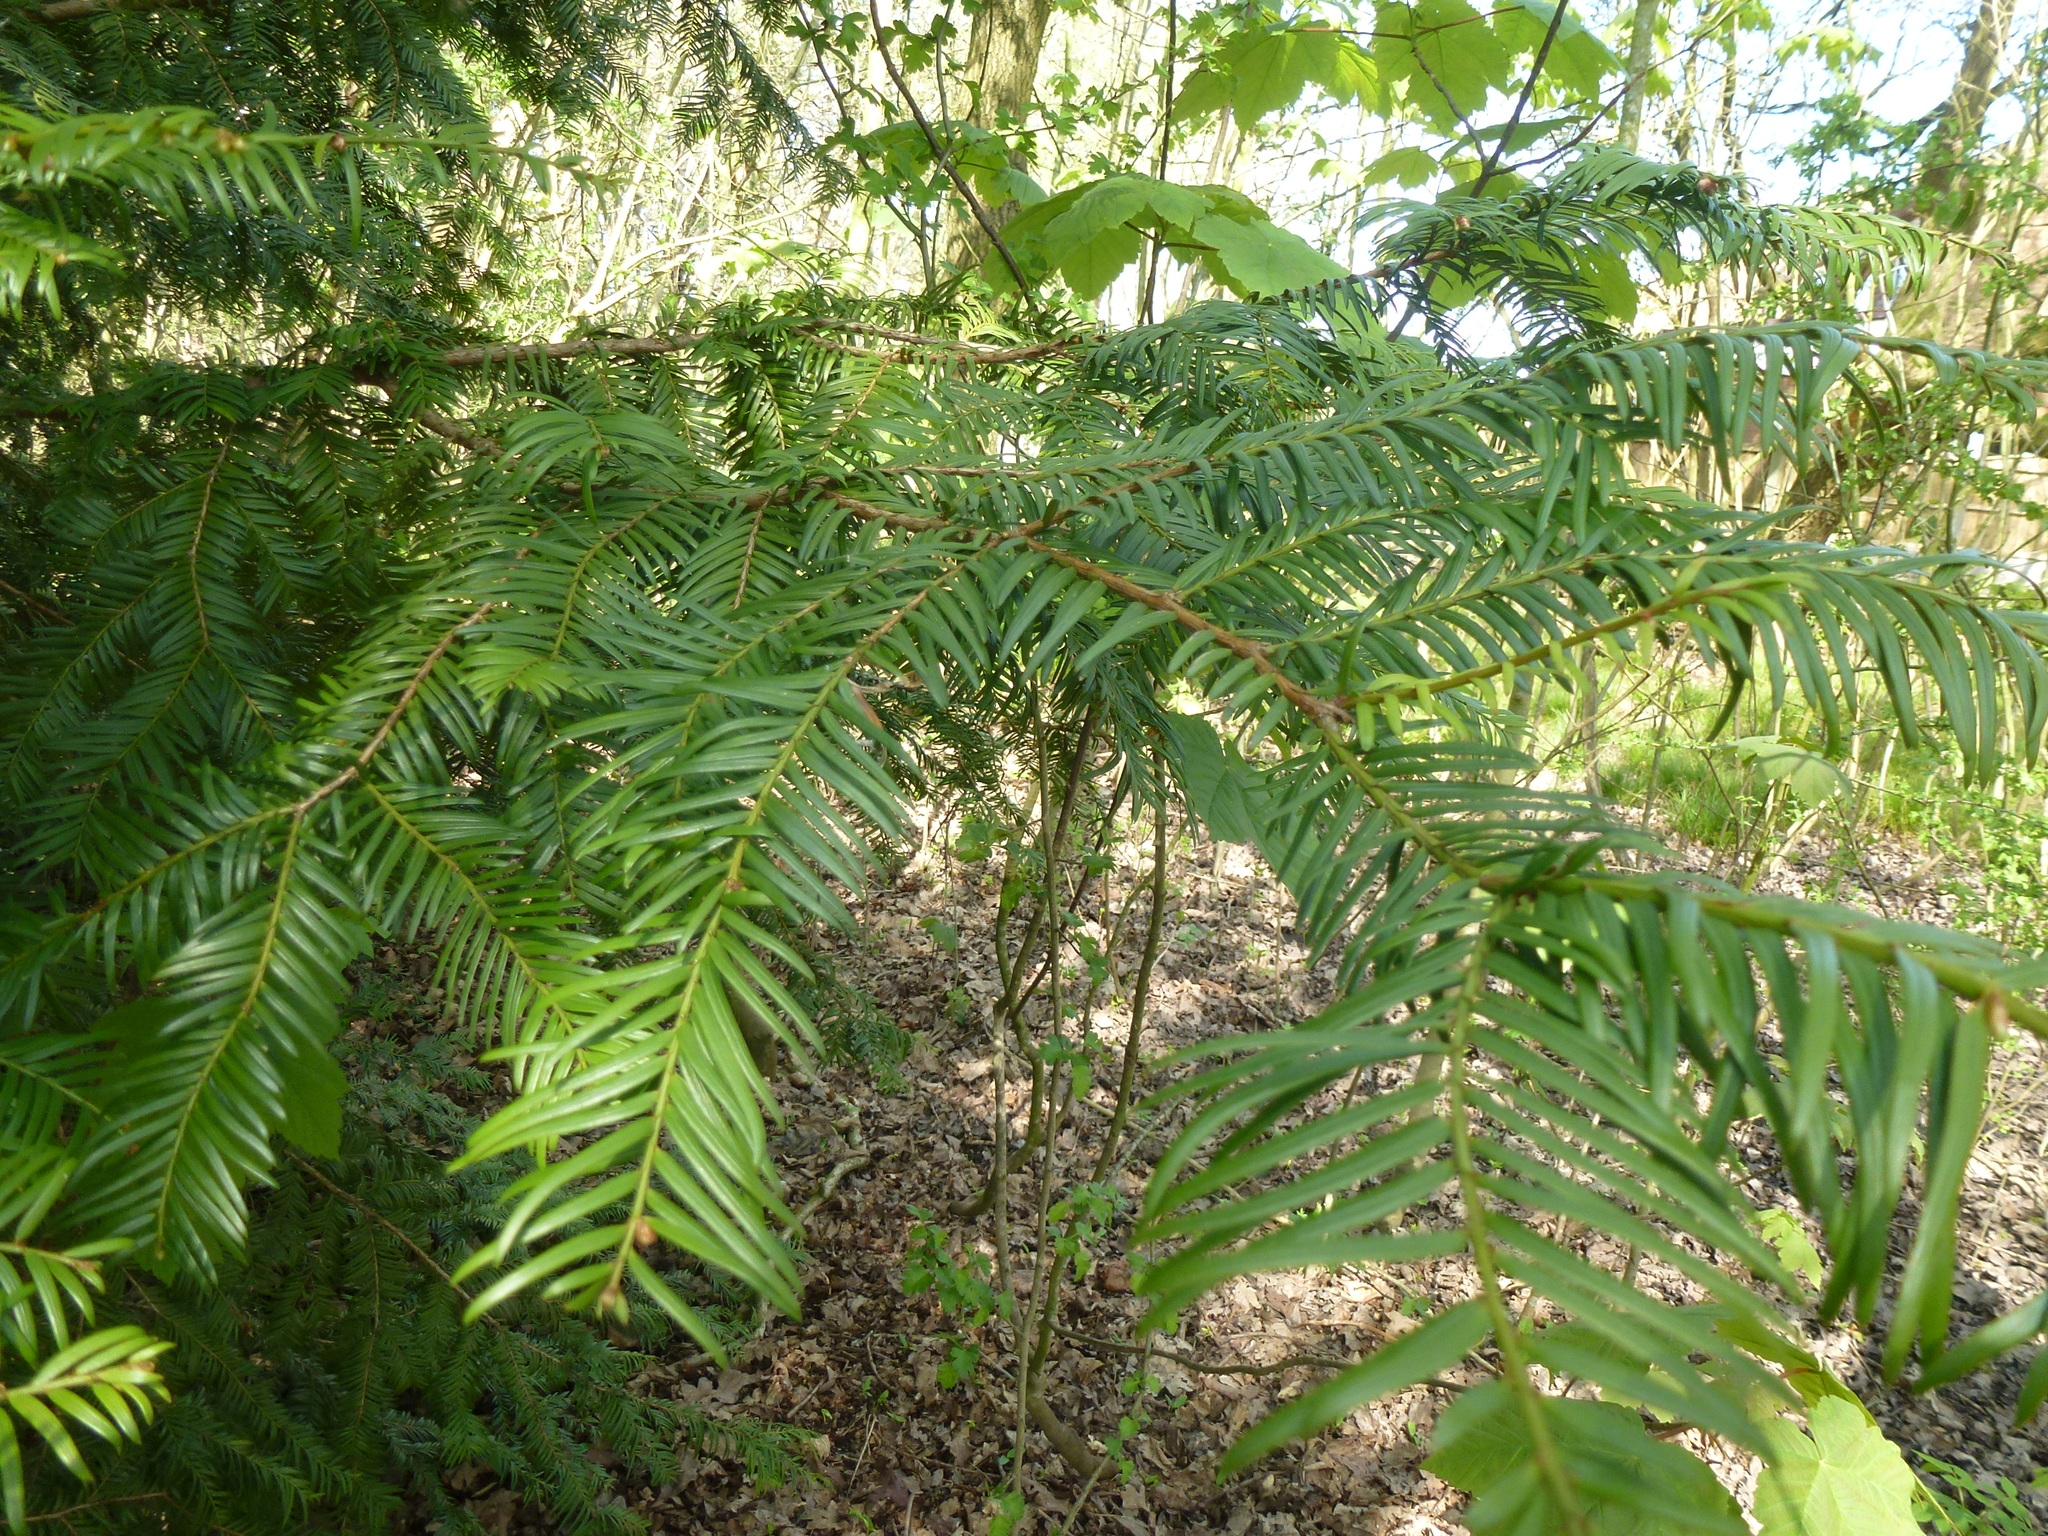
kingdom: Plantae
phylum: Tracheophyta
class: Pinopsida
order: Pinales
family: Taxaceae
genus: Taxus
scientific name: Taxus baccata
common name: Yew
